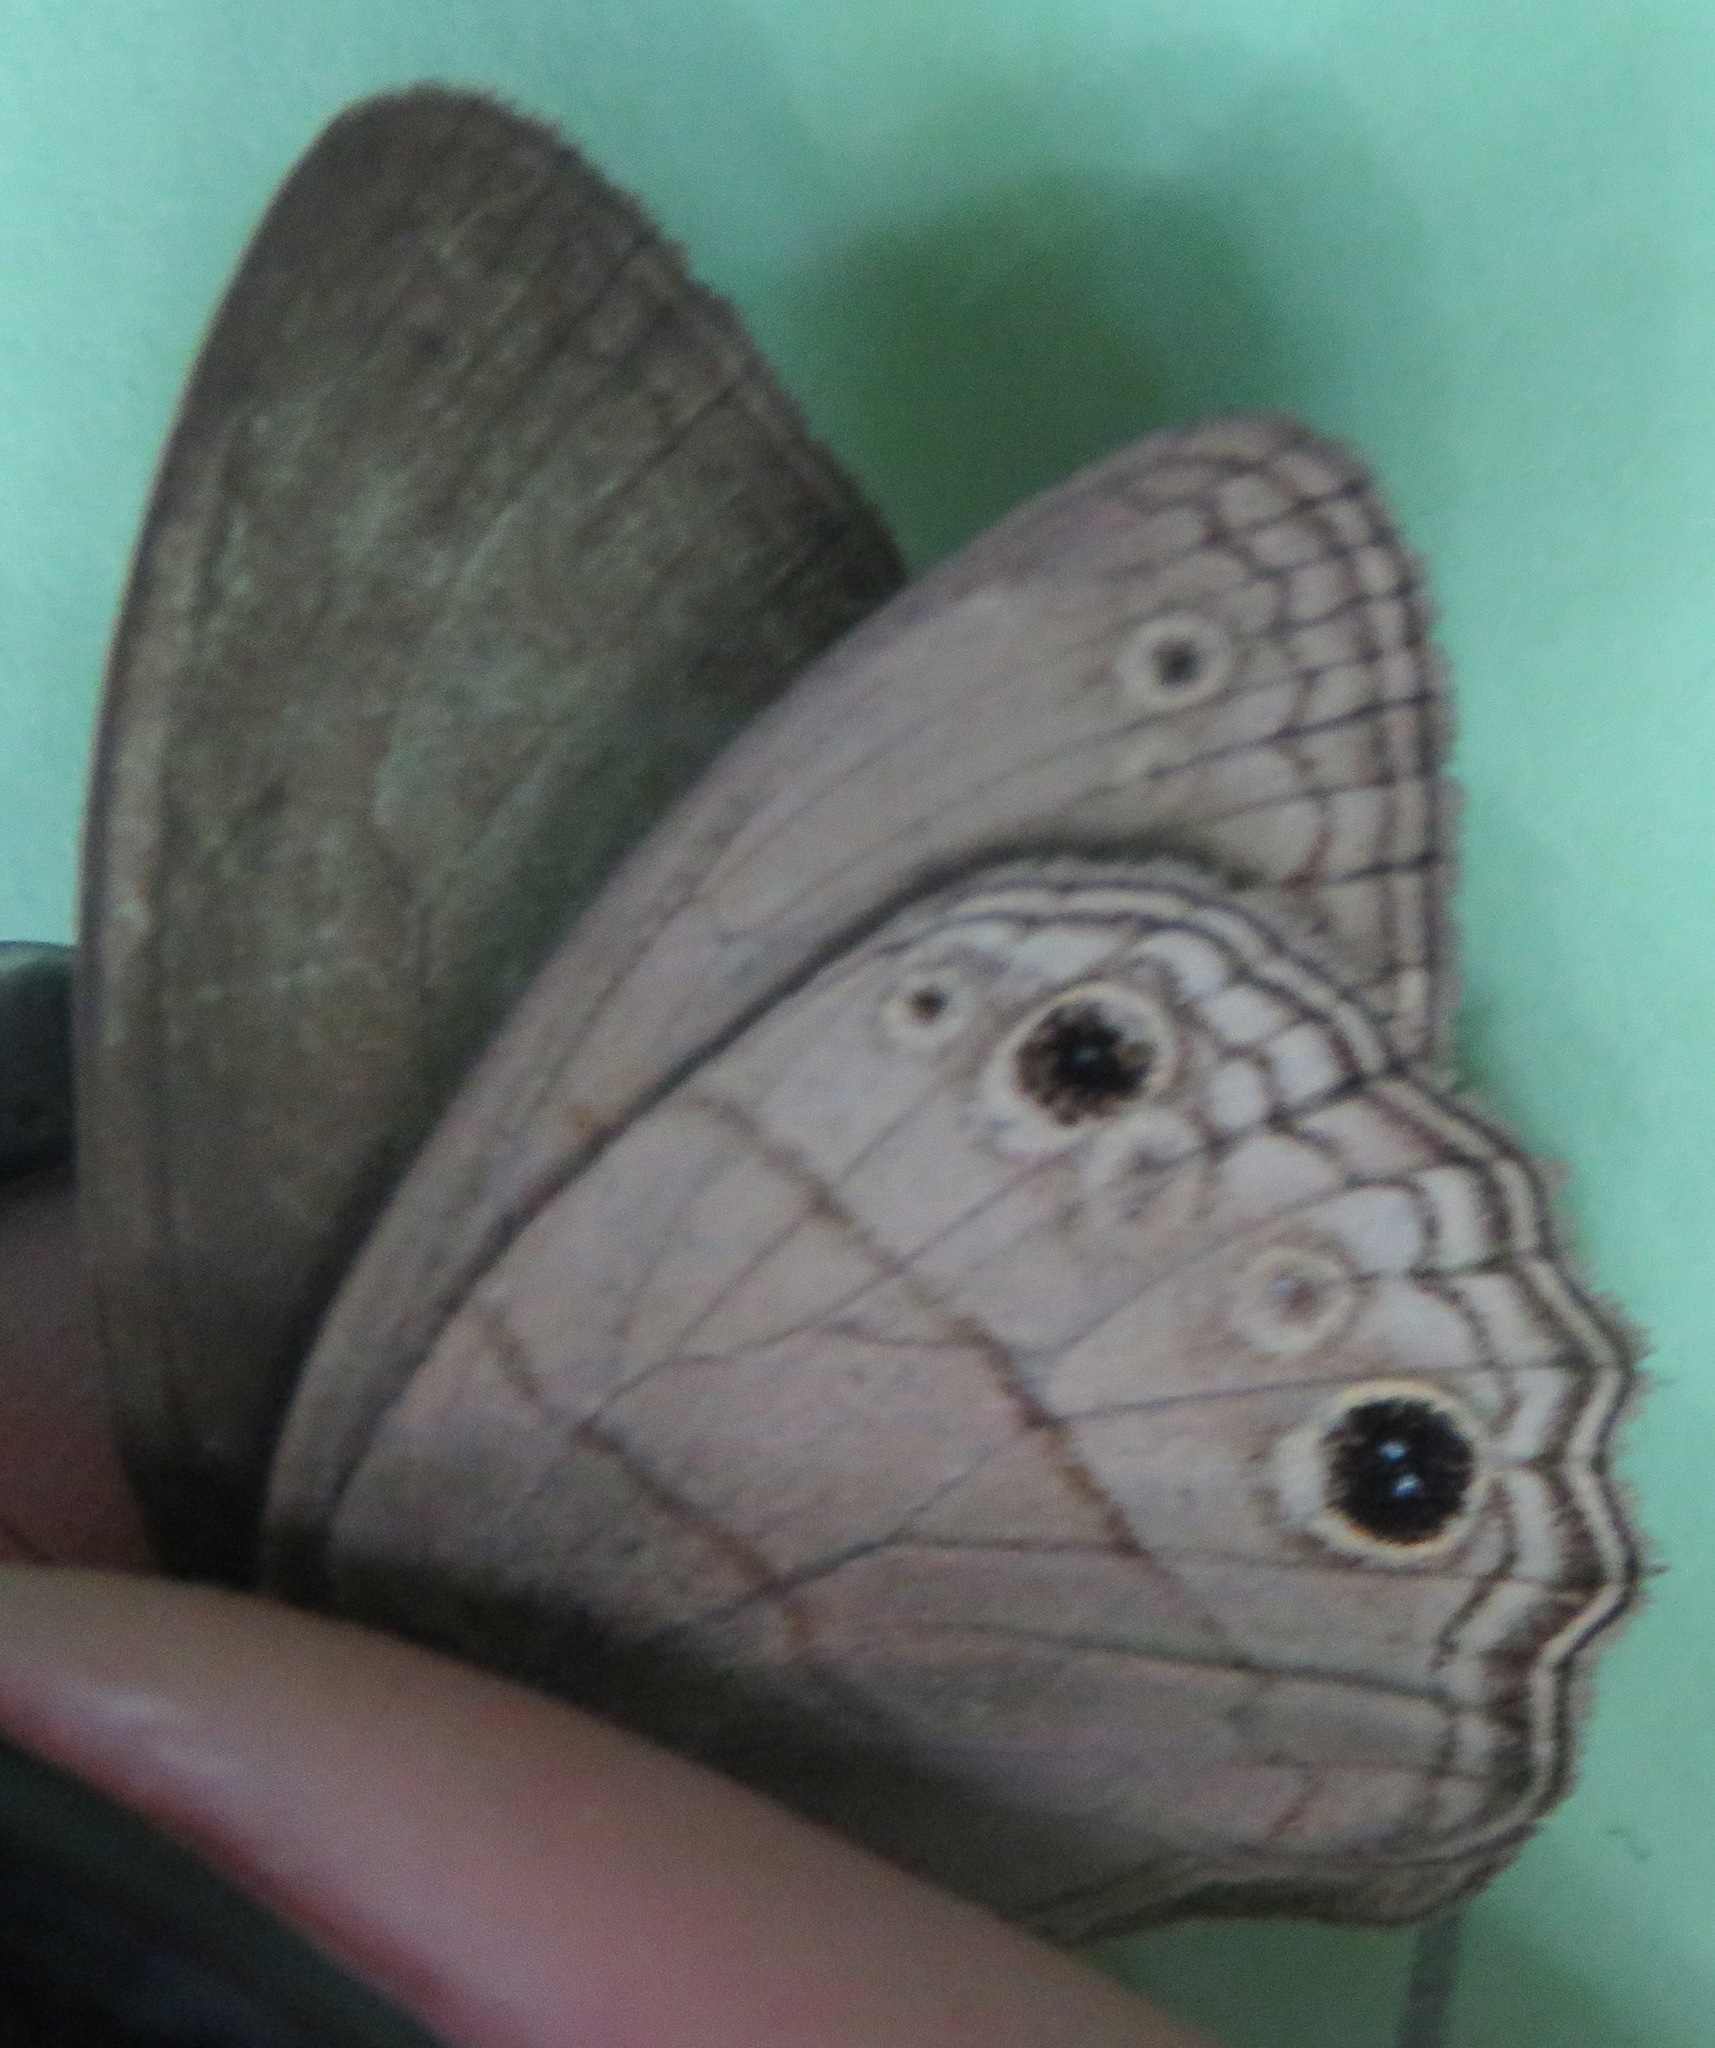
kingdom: Animalia
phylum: Arthropoda
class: Insecta
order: Lepidoptera
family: Nymphalidae
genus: Vareuptychia
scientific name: Vareuptychia similis
